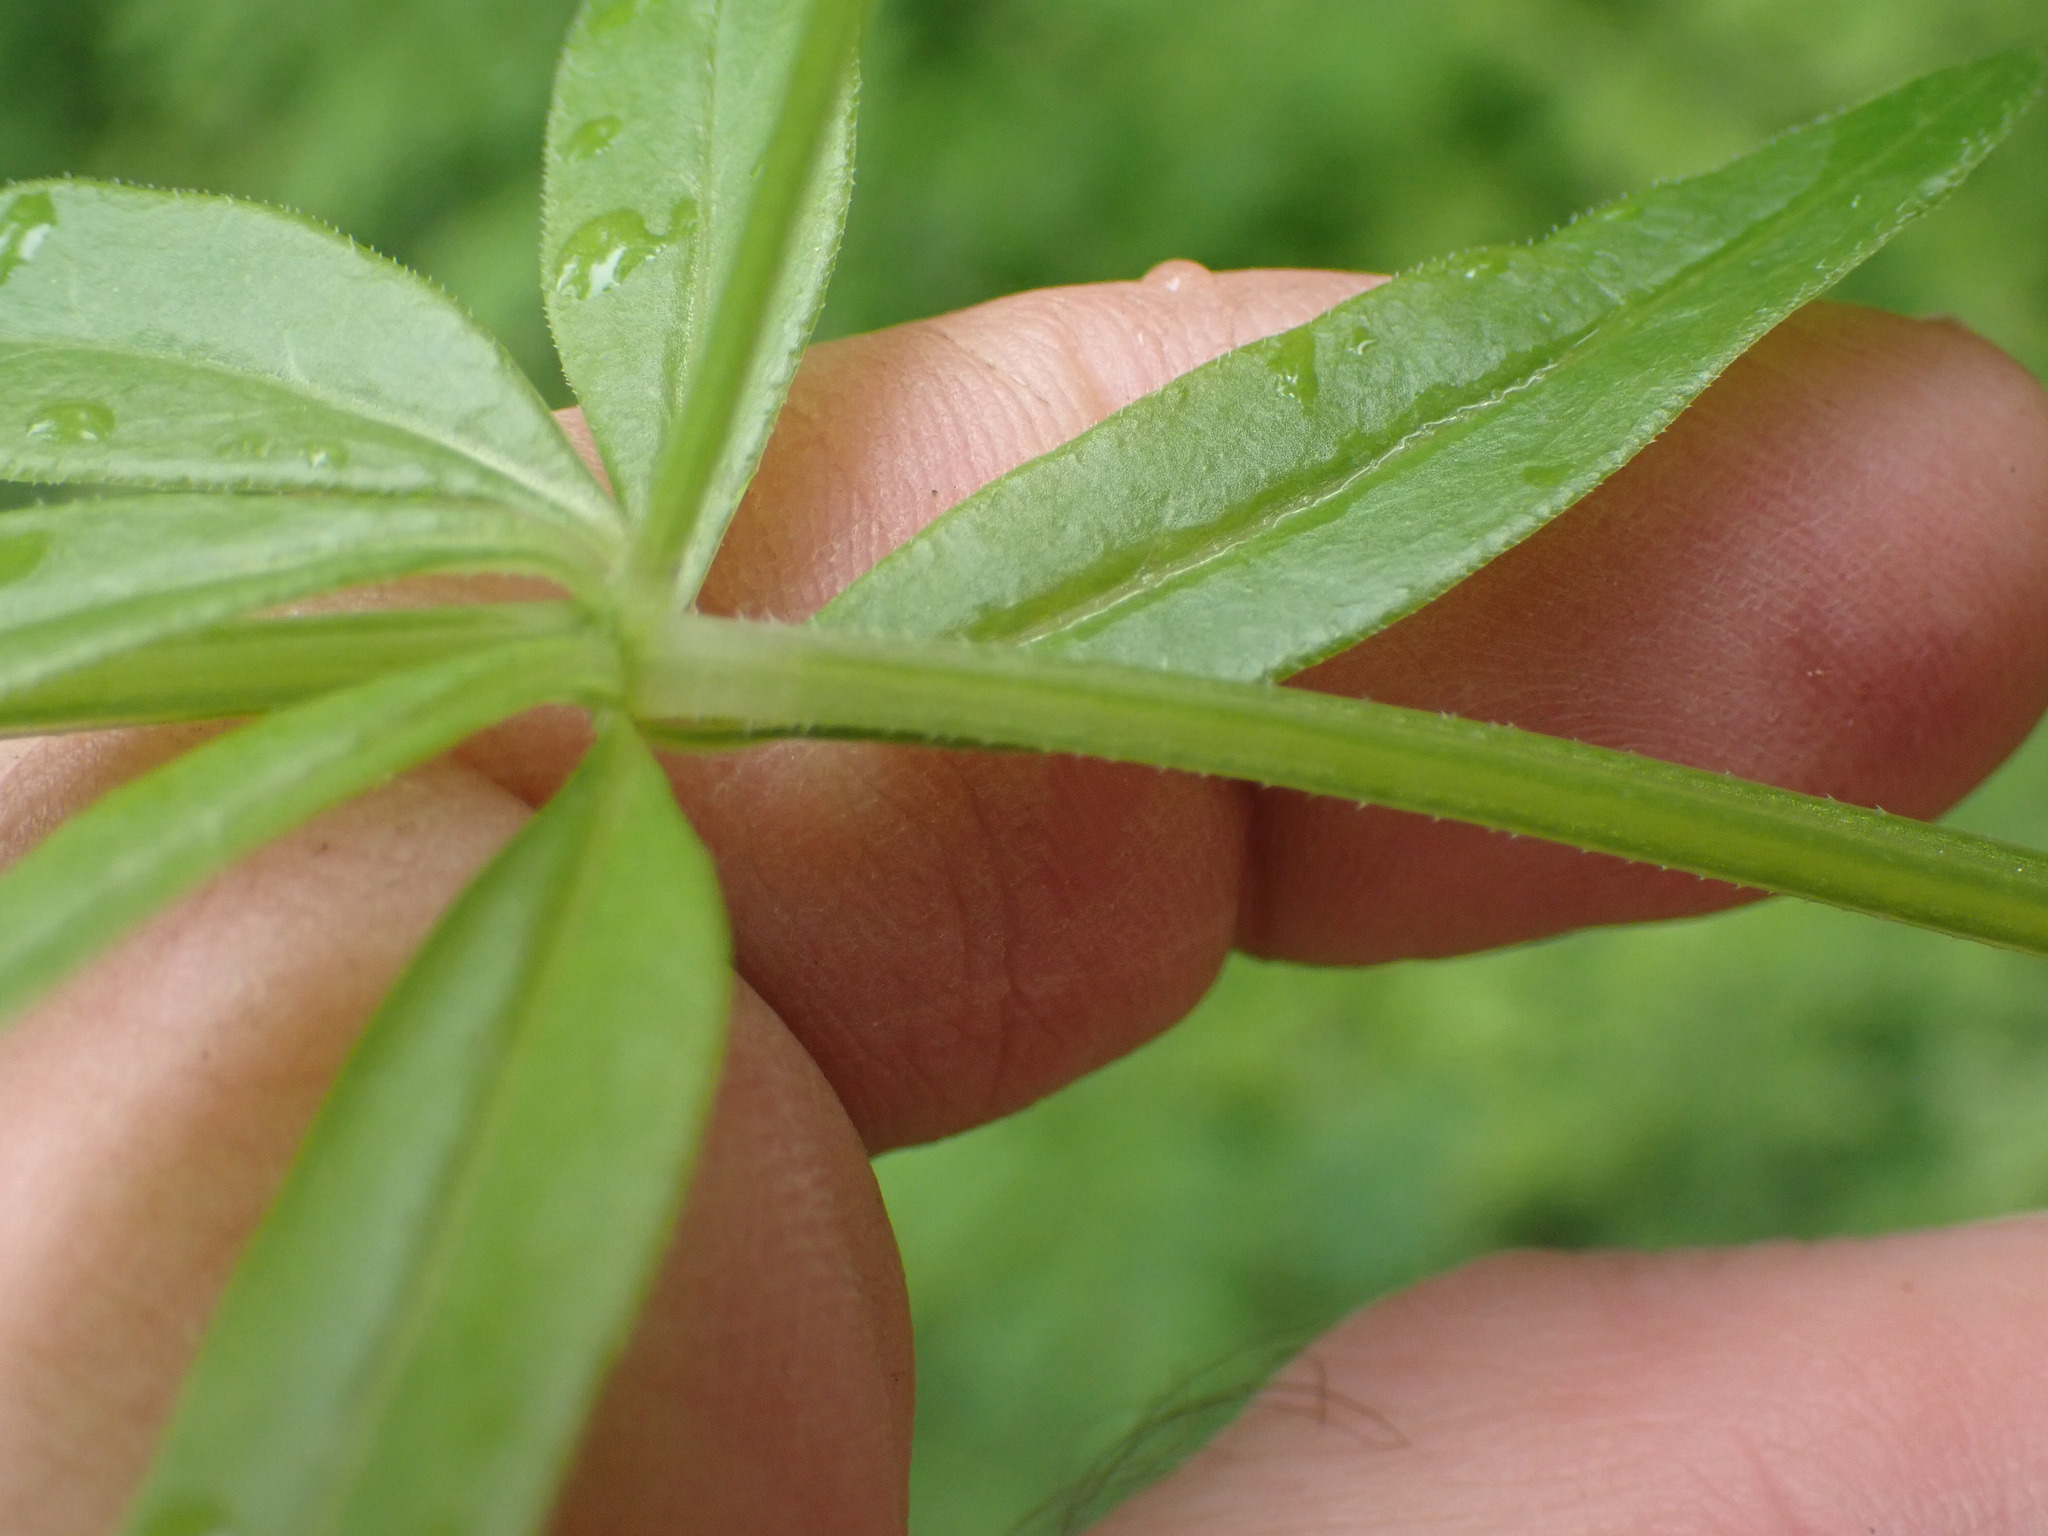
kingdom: Plantae
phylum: Tracheophyta
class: Magnoliopsida
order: Gentianales
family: Rubiaceae
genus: Galium
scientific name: Galium triflorum
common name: Fragrant bedstraw
